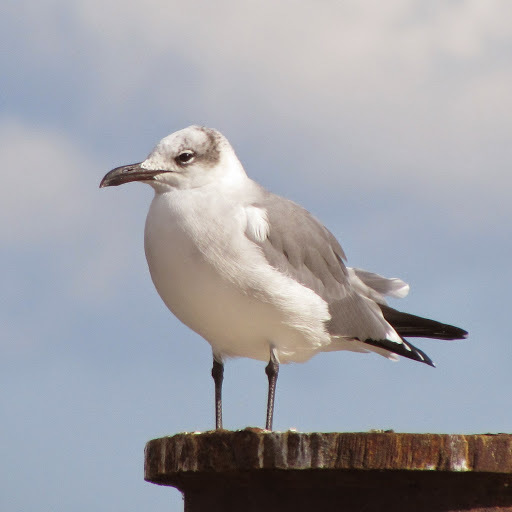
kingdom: Animalia
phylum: Chordata
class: Aves
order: Charadriiformes
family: Laridae
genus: Leucophaeus
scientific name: Leucophaeus atricilla
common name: Laughing gull
